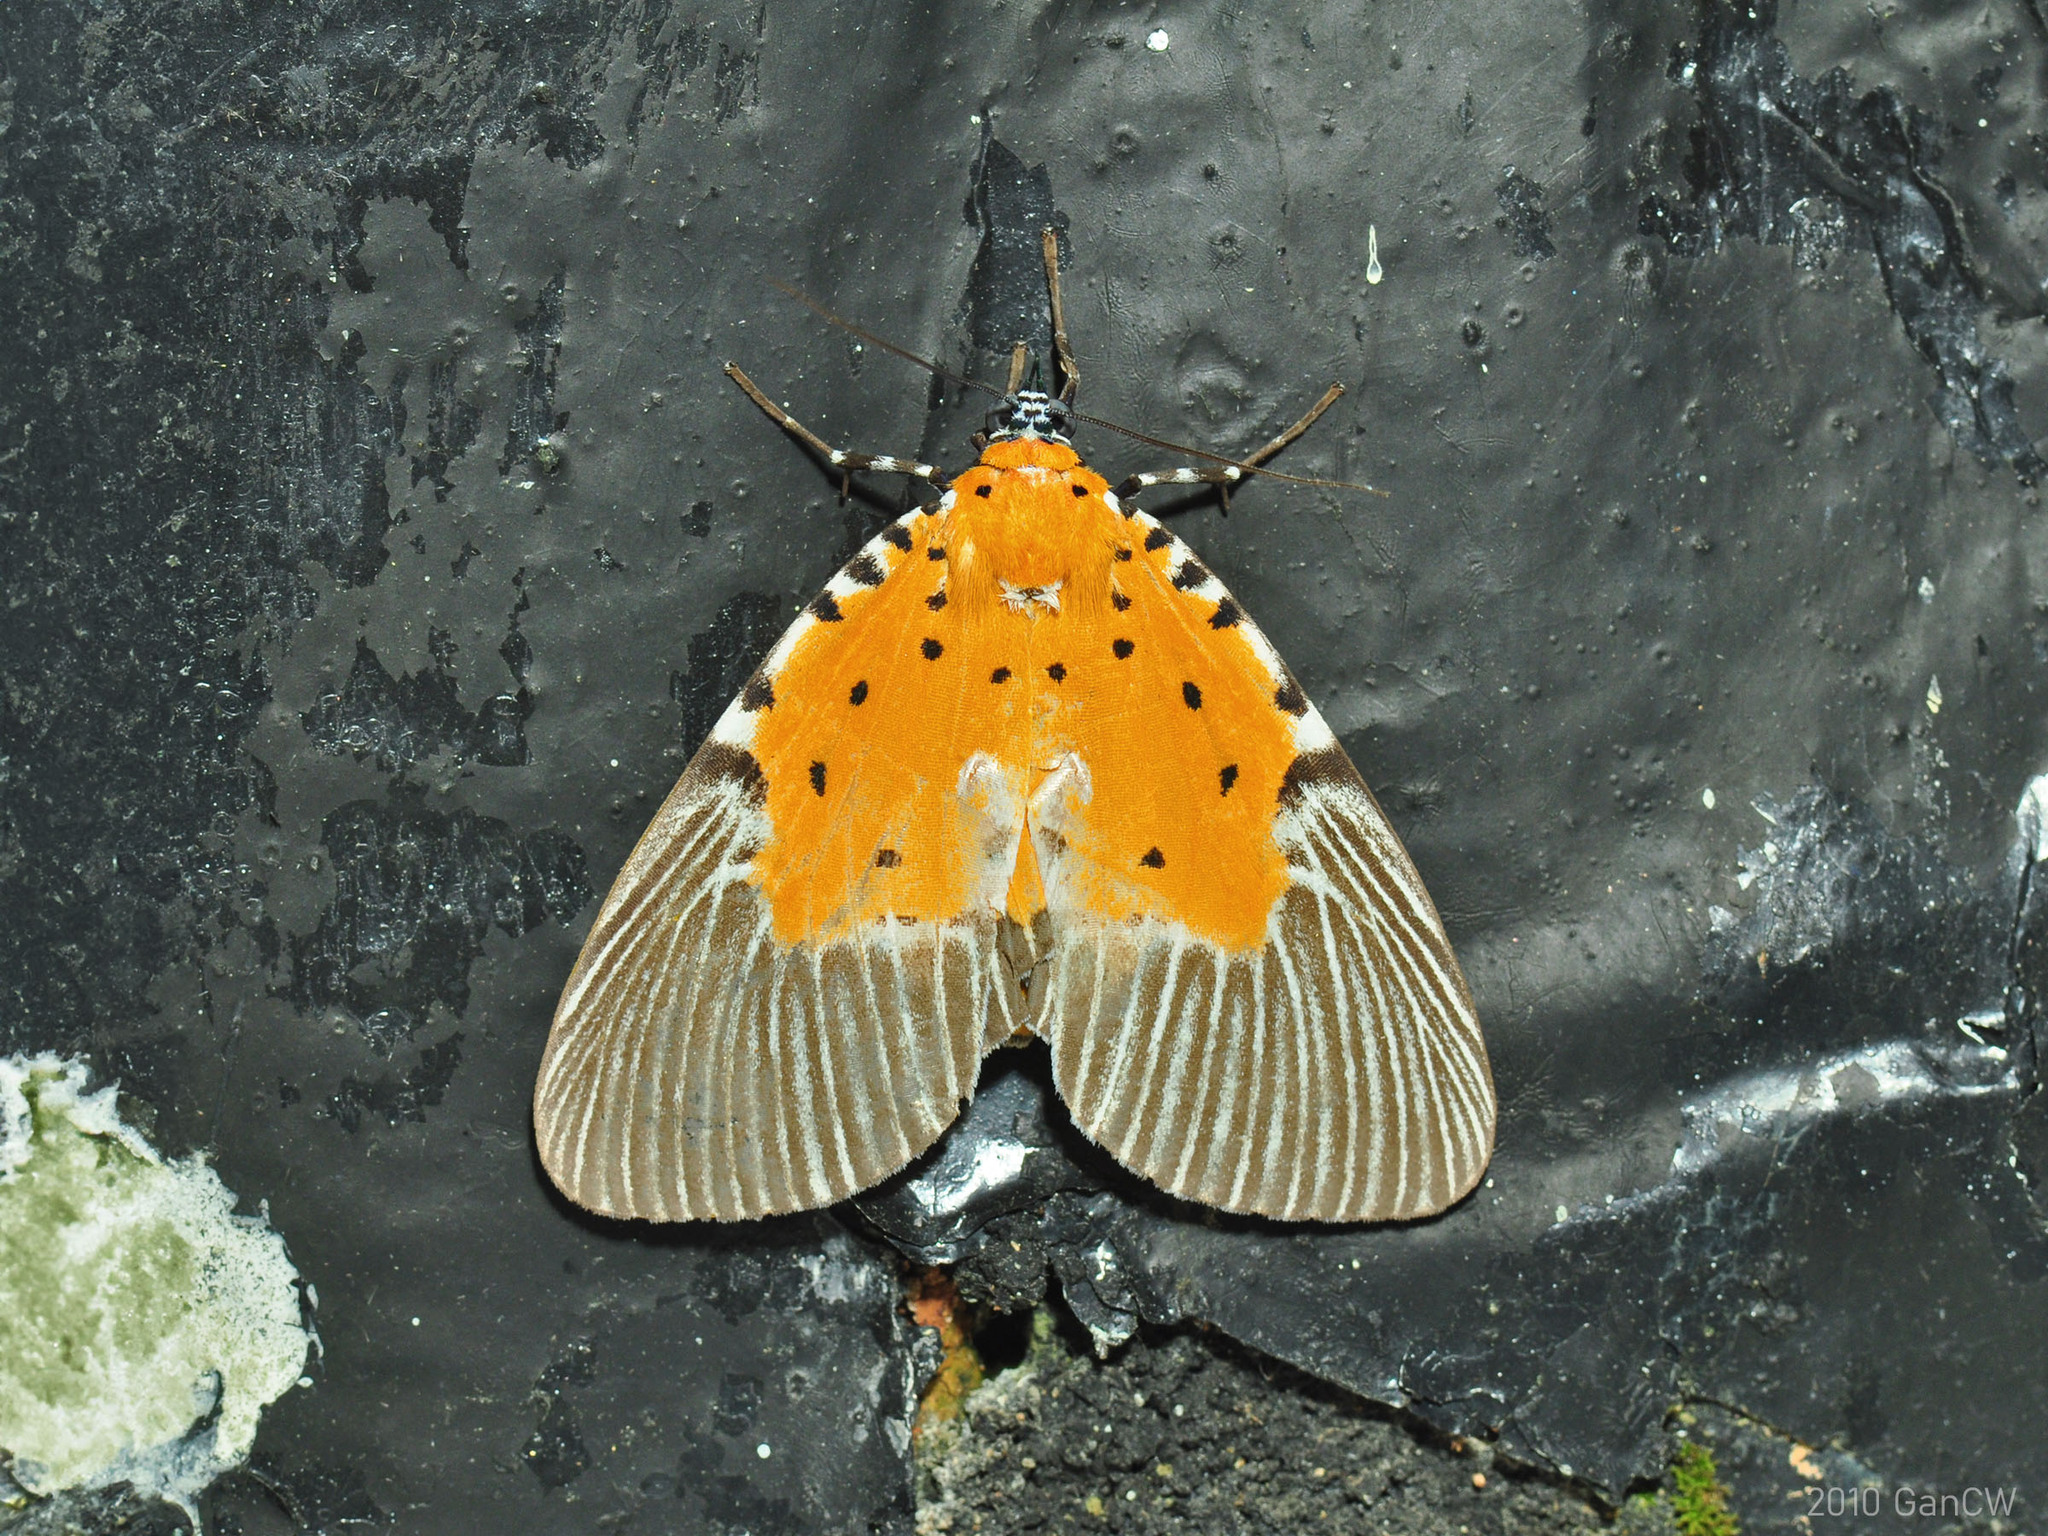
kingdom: Animalia
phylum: Arthropoda
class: Insecta
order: Lepidoptera
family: Erebidae
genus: Peridrome
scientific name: Peridrome orbicularis
